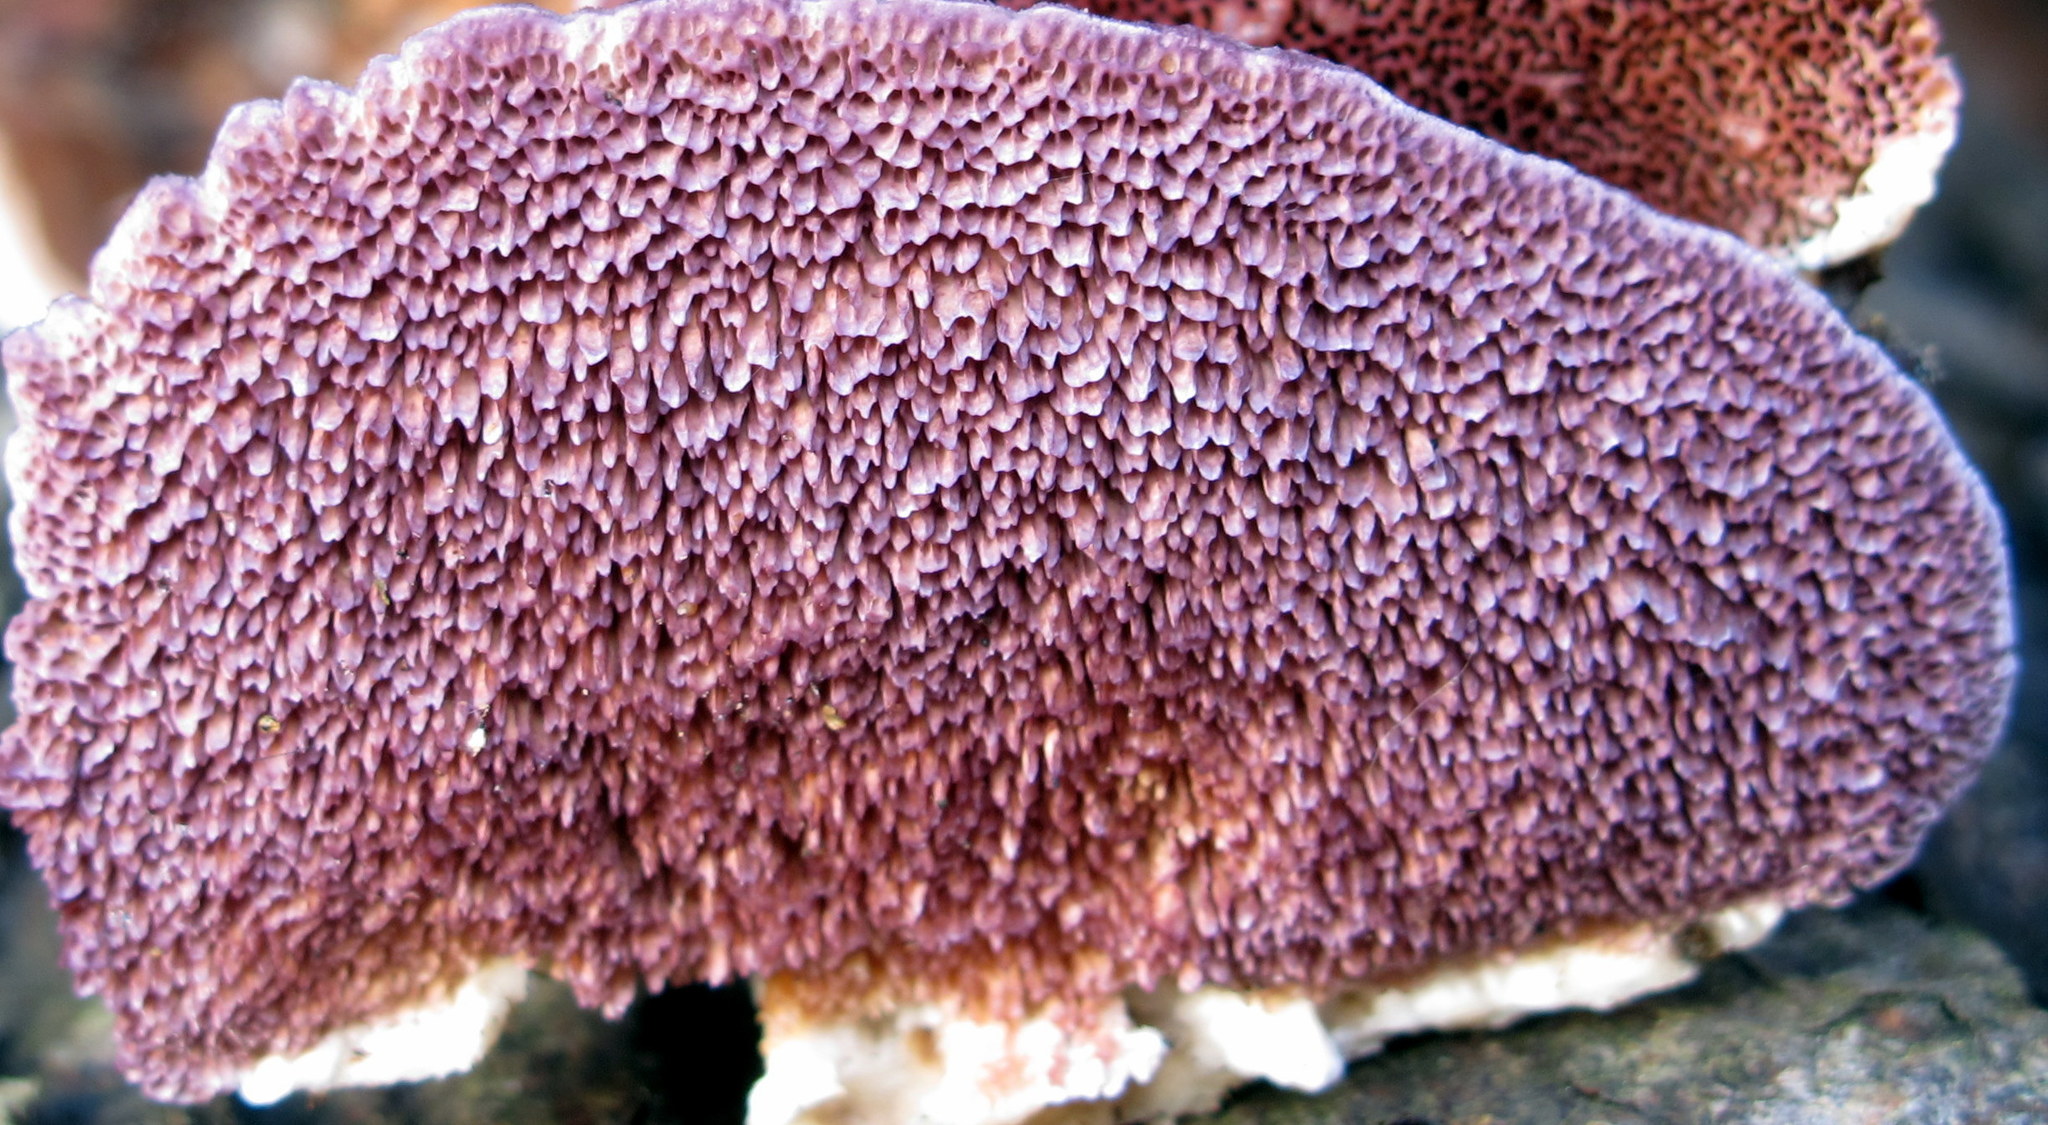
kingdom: Fungi
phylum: Basidiomycota
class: Agaricomycetes
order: Hymenochaetales
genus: Trichaptum
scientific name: Trichaptum biforme
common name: Violet-toothed polypore
